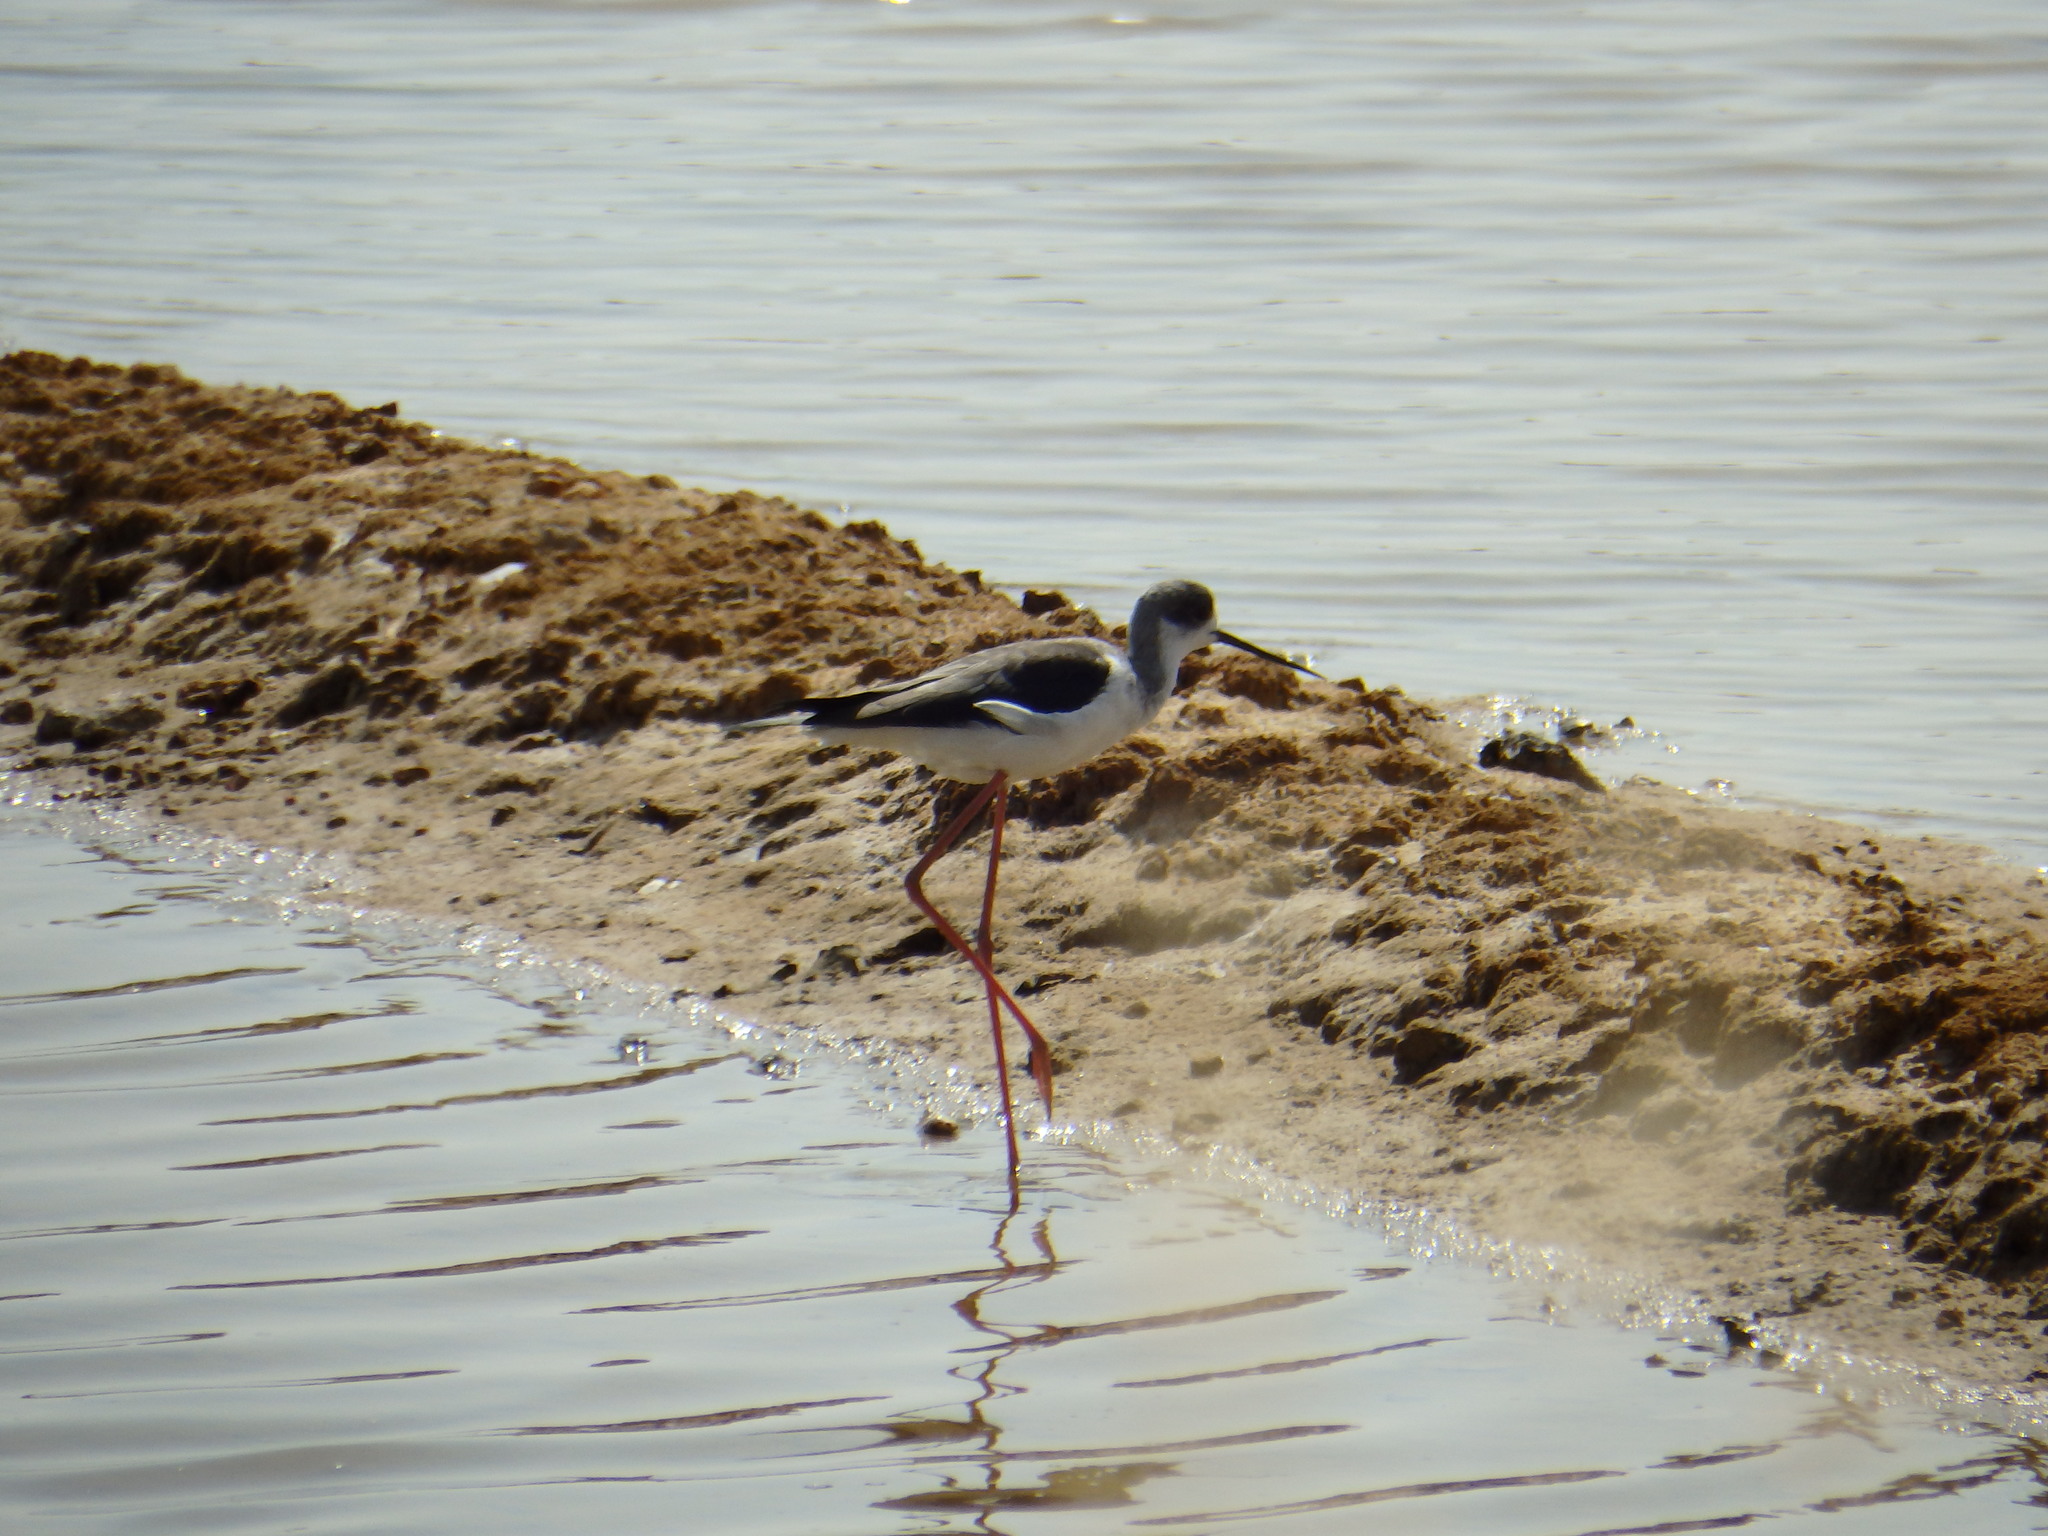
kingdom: Animalia
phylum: Chordata
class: Aves
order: Charadriiformes
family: Recurvirostridae
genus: Himantopus
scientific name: Himantopus himantopus
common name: Black-winged stilt
